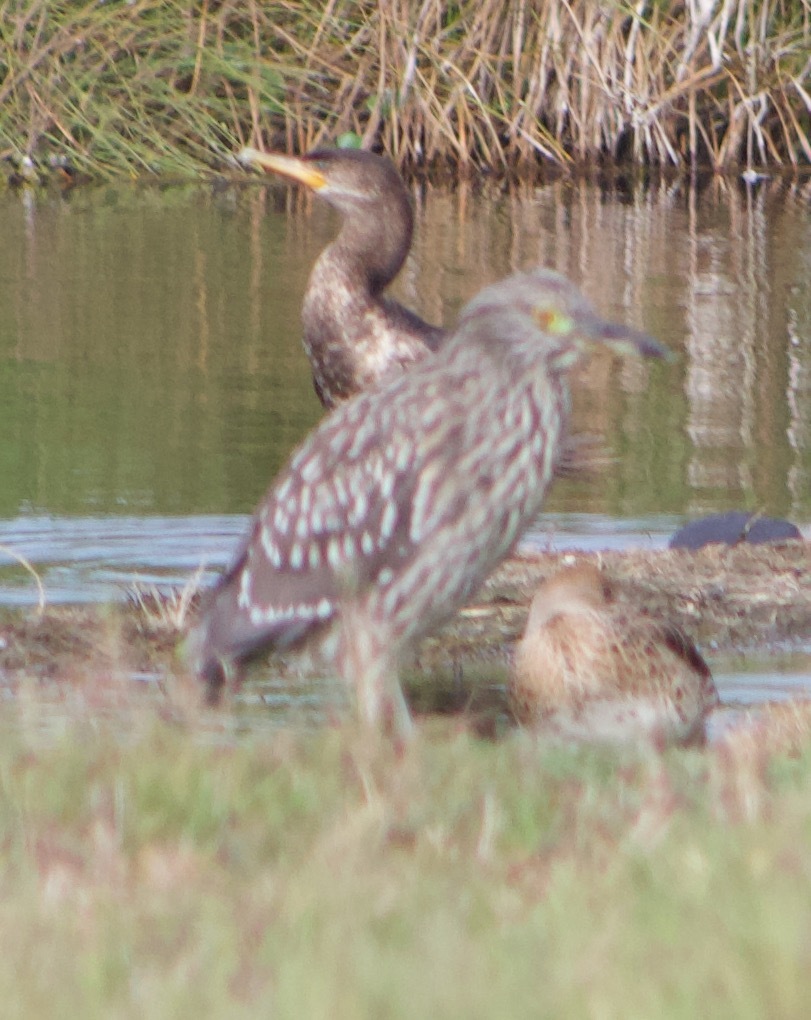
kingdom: Animalia
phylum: Chordata
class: Aves
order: Pelecaniformes
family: Ardeidae
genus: Nycticorax
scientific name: Nycticorax nycticorax
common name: Black-crowned night heron
